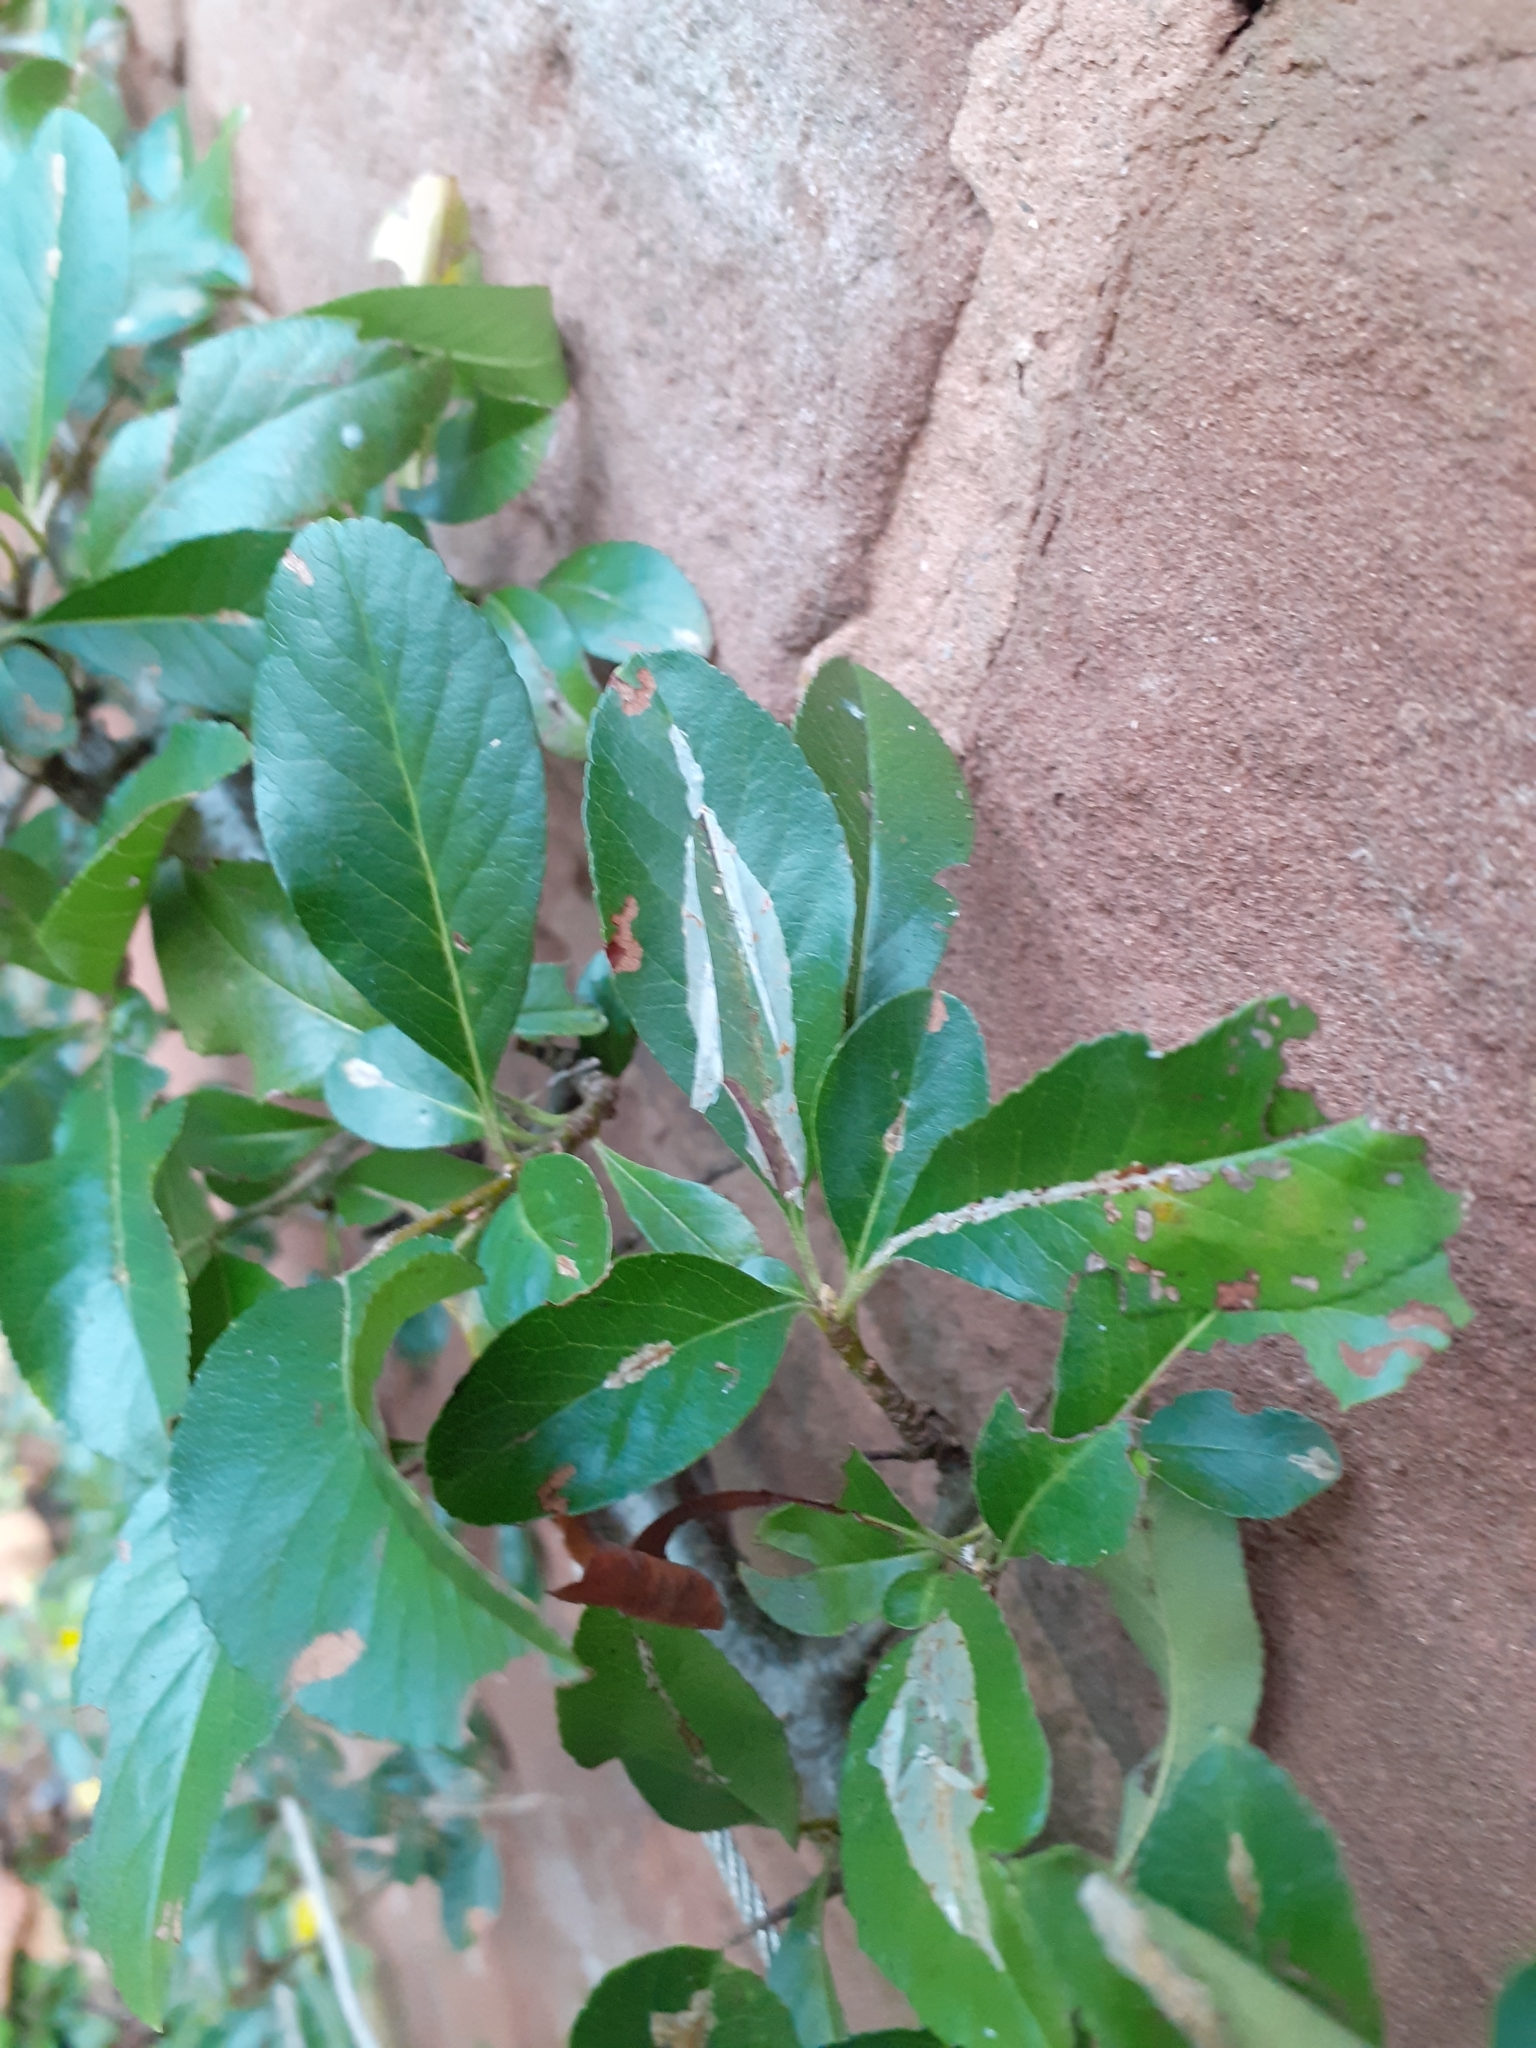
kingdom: Animalia
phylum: Arthropoda
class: Insecta
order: Lepidoptera
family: Gracillariidae
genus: Phyllonorycter
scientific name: Phyllonorycter leucographella
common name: Firethorn leaf-miner
